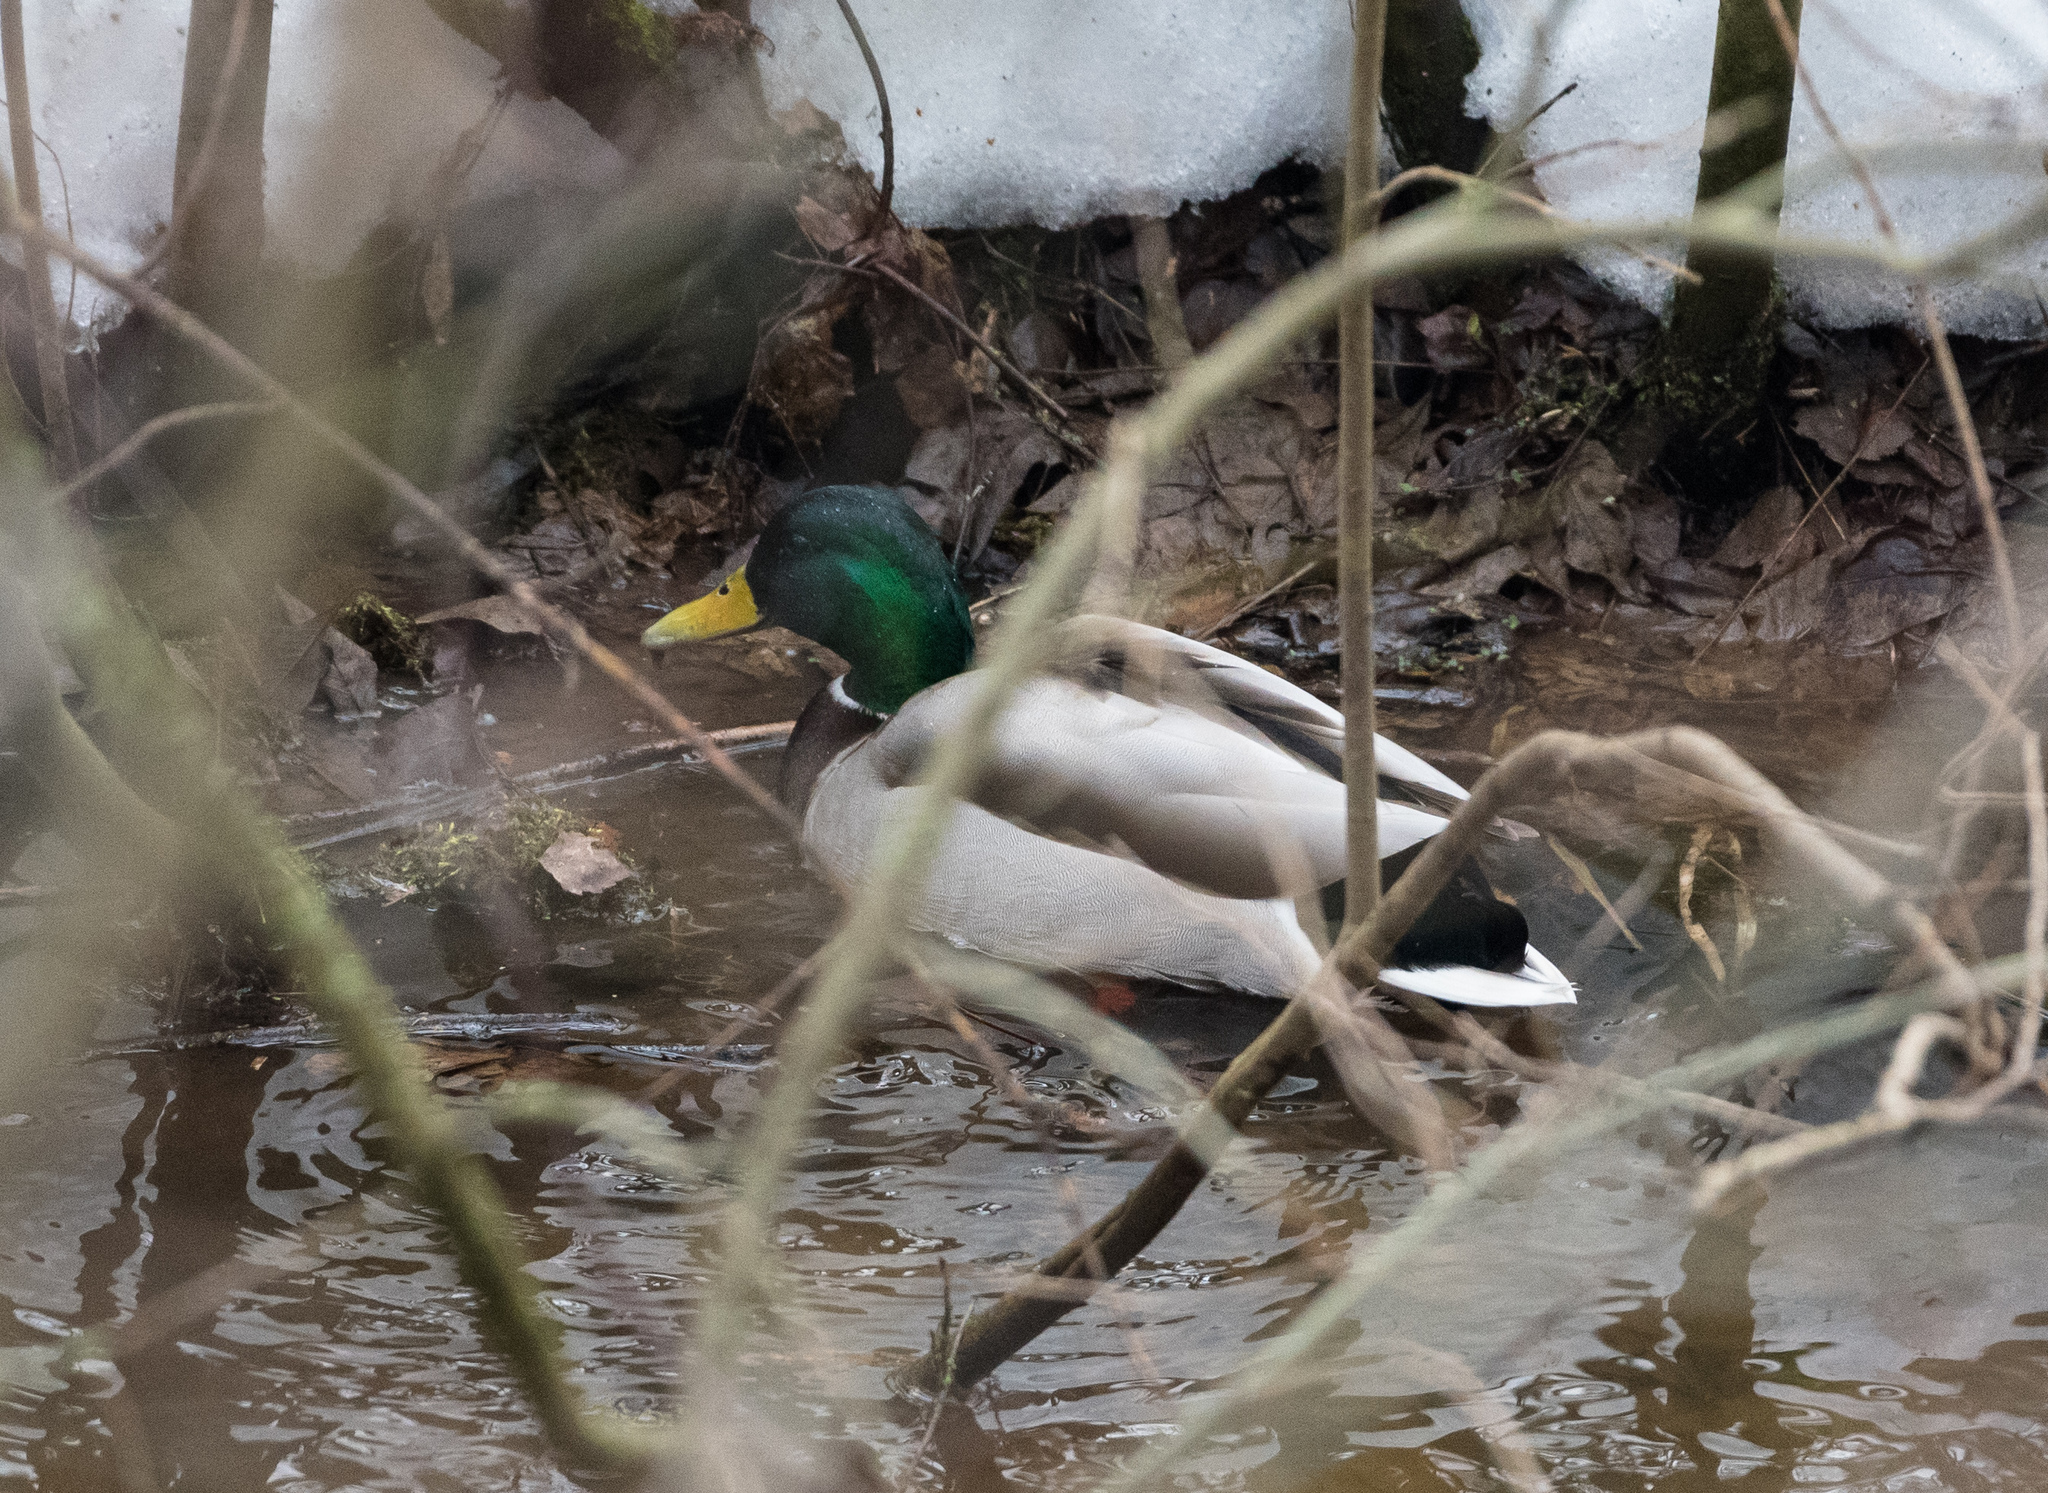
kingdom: Animalia
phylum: Chordata
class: Aves
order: Anseriformes
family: Anatidae
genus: Anas
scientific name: Anas platyrhynchos
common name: Mallard
